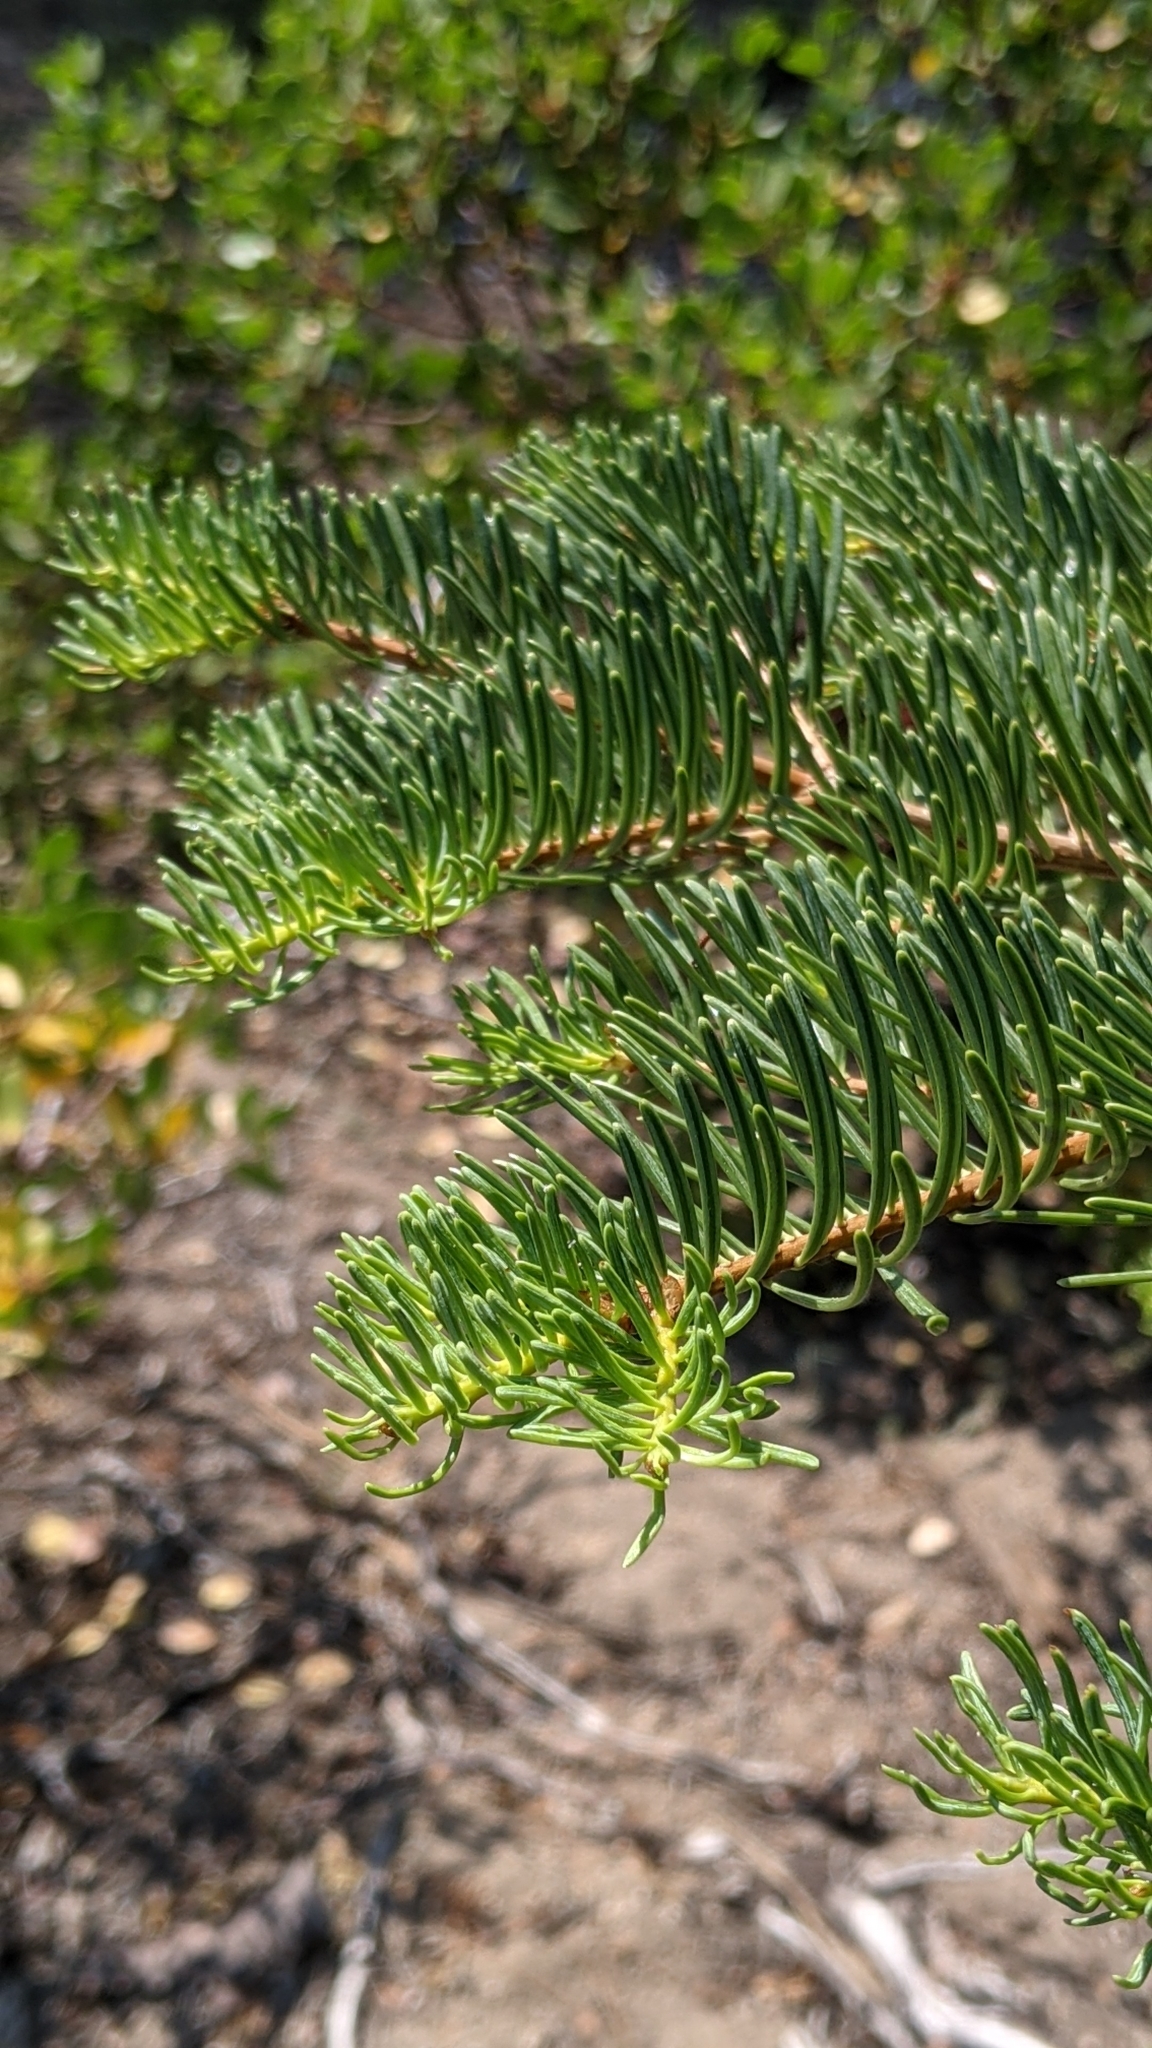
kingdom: Plantae
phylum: Tracheophyta
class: Pinopsida
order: Pinales
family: Pinaceae
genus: Abies
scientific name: Abies concolor
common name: Colorado fir
